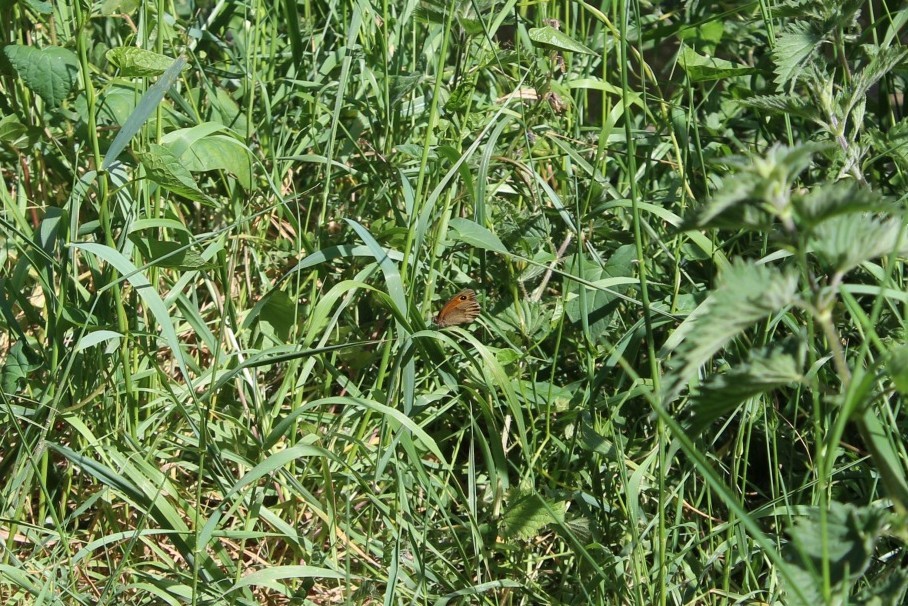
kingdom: Animalia
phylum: Arthropoda
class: Insecta
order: Lepidoptera
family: Nymphalidae
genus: Maniola
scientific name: Maniola jurtina
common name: Meadow brown
